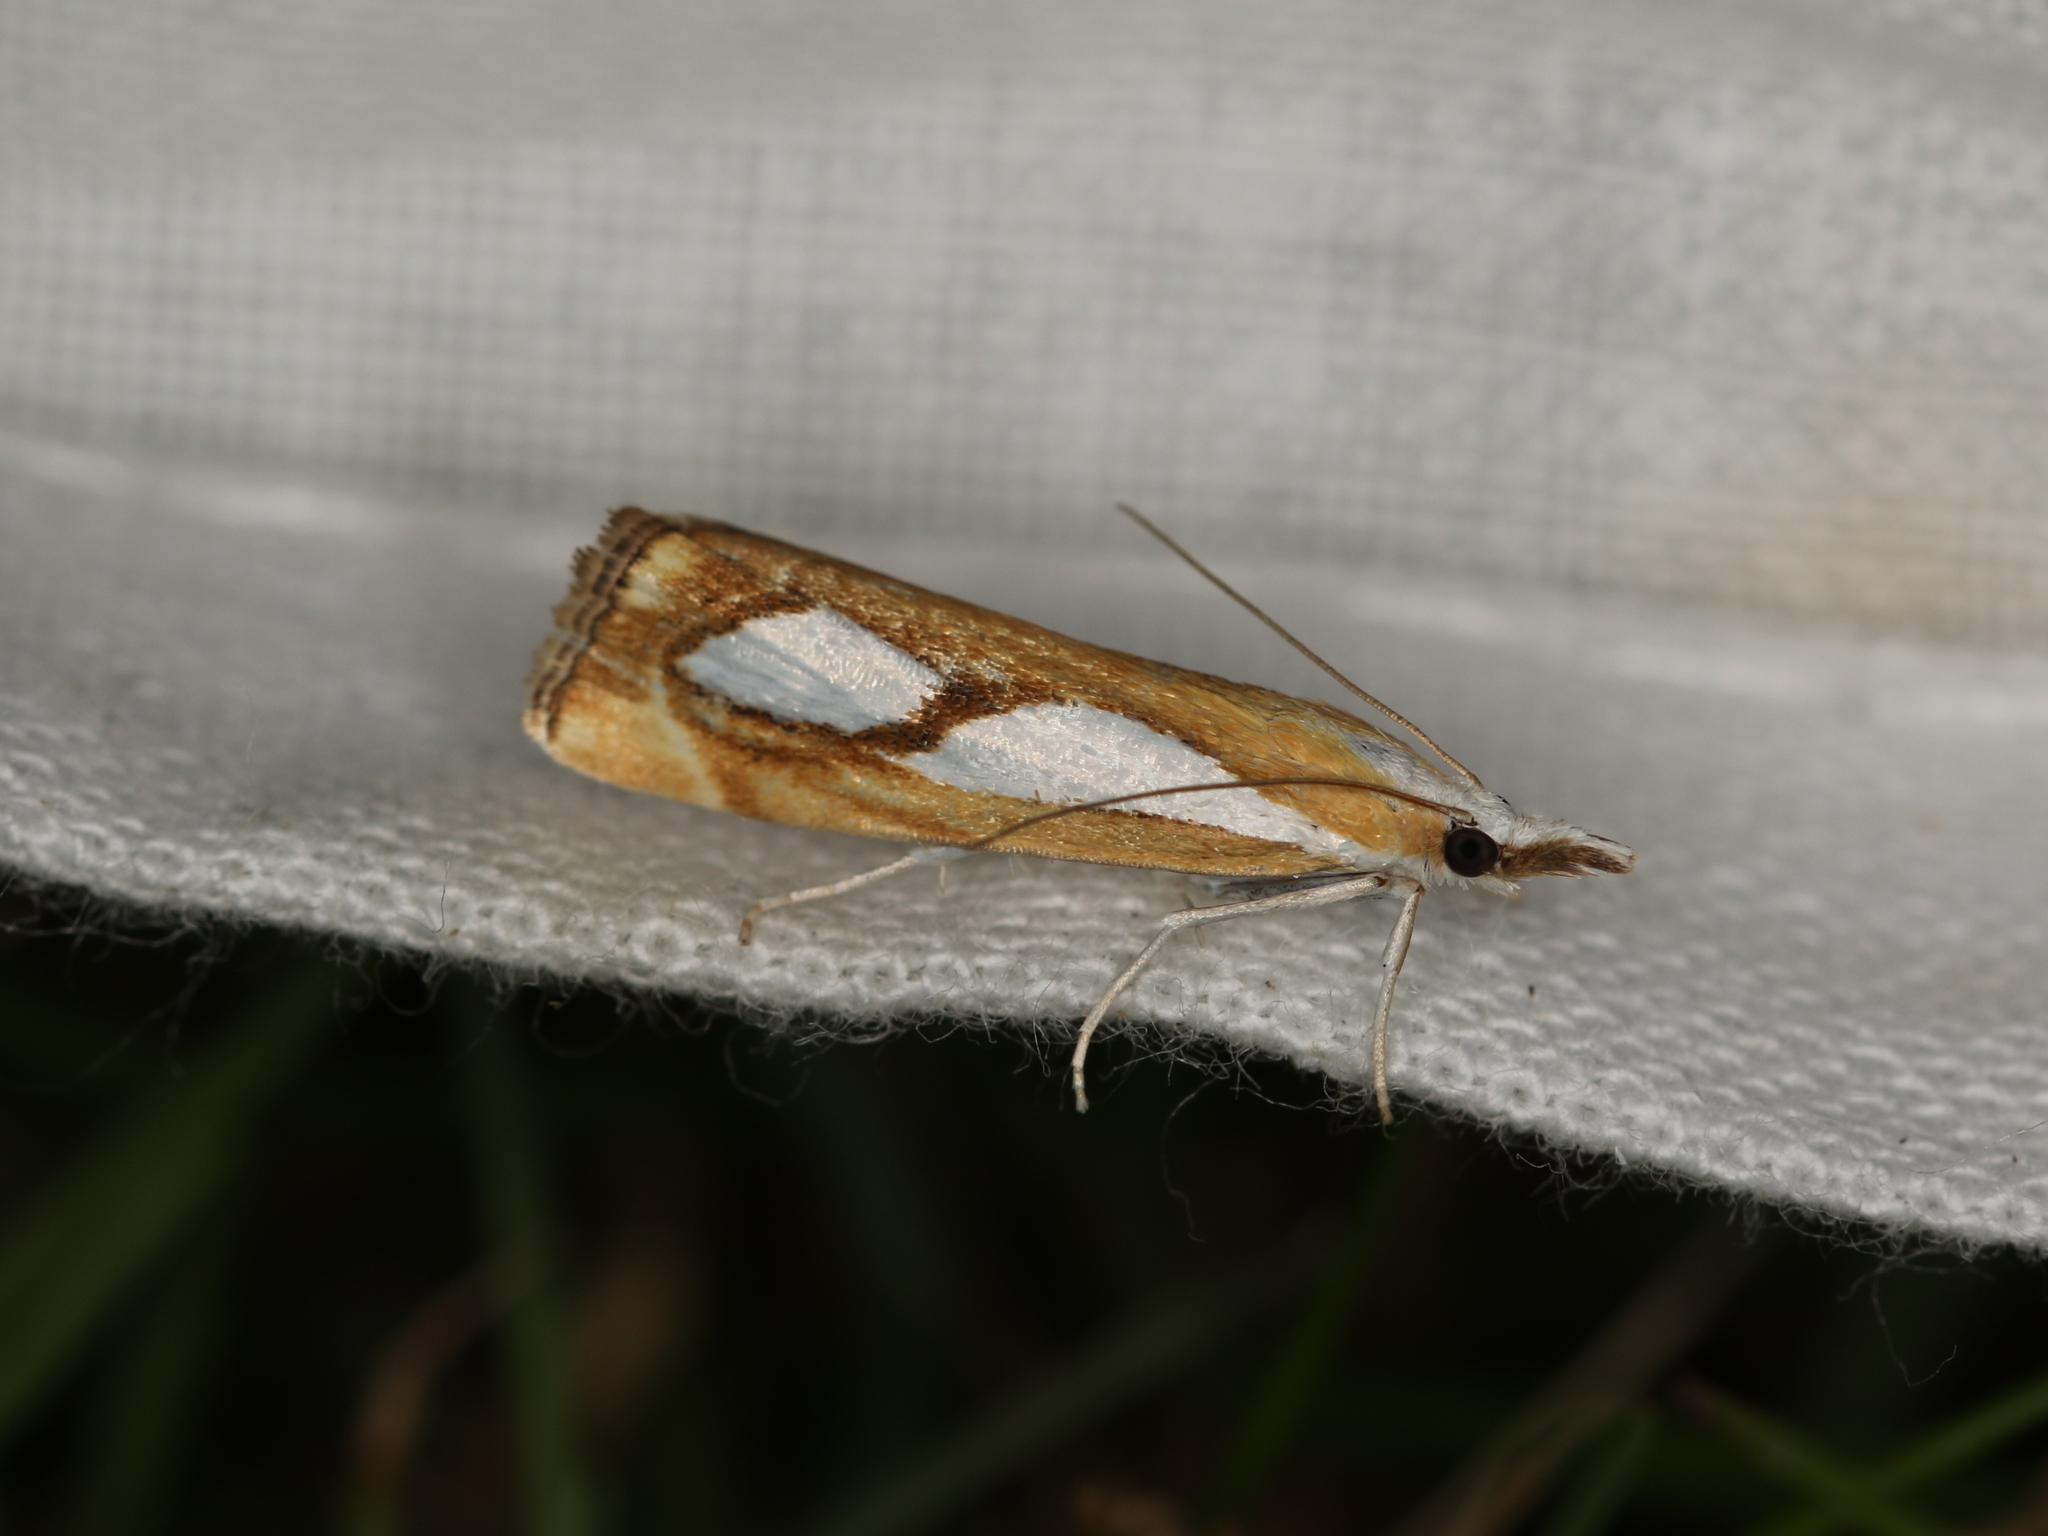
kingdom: Animalia
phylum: Arthropoda
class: Insecta
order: Lepidoptera
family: Crambidae
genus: Catoptria
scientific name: Catoptria pinella
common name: Pearl grass-veneer
